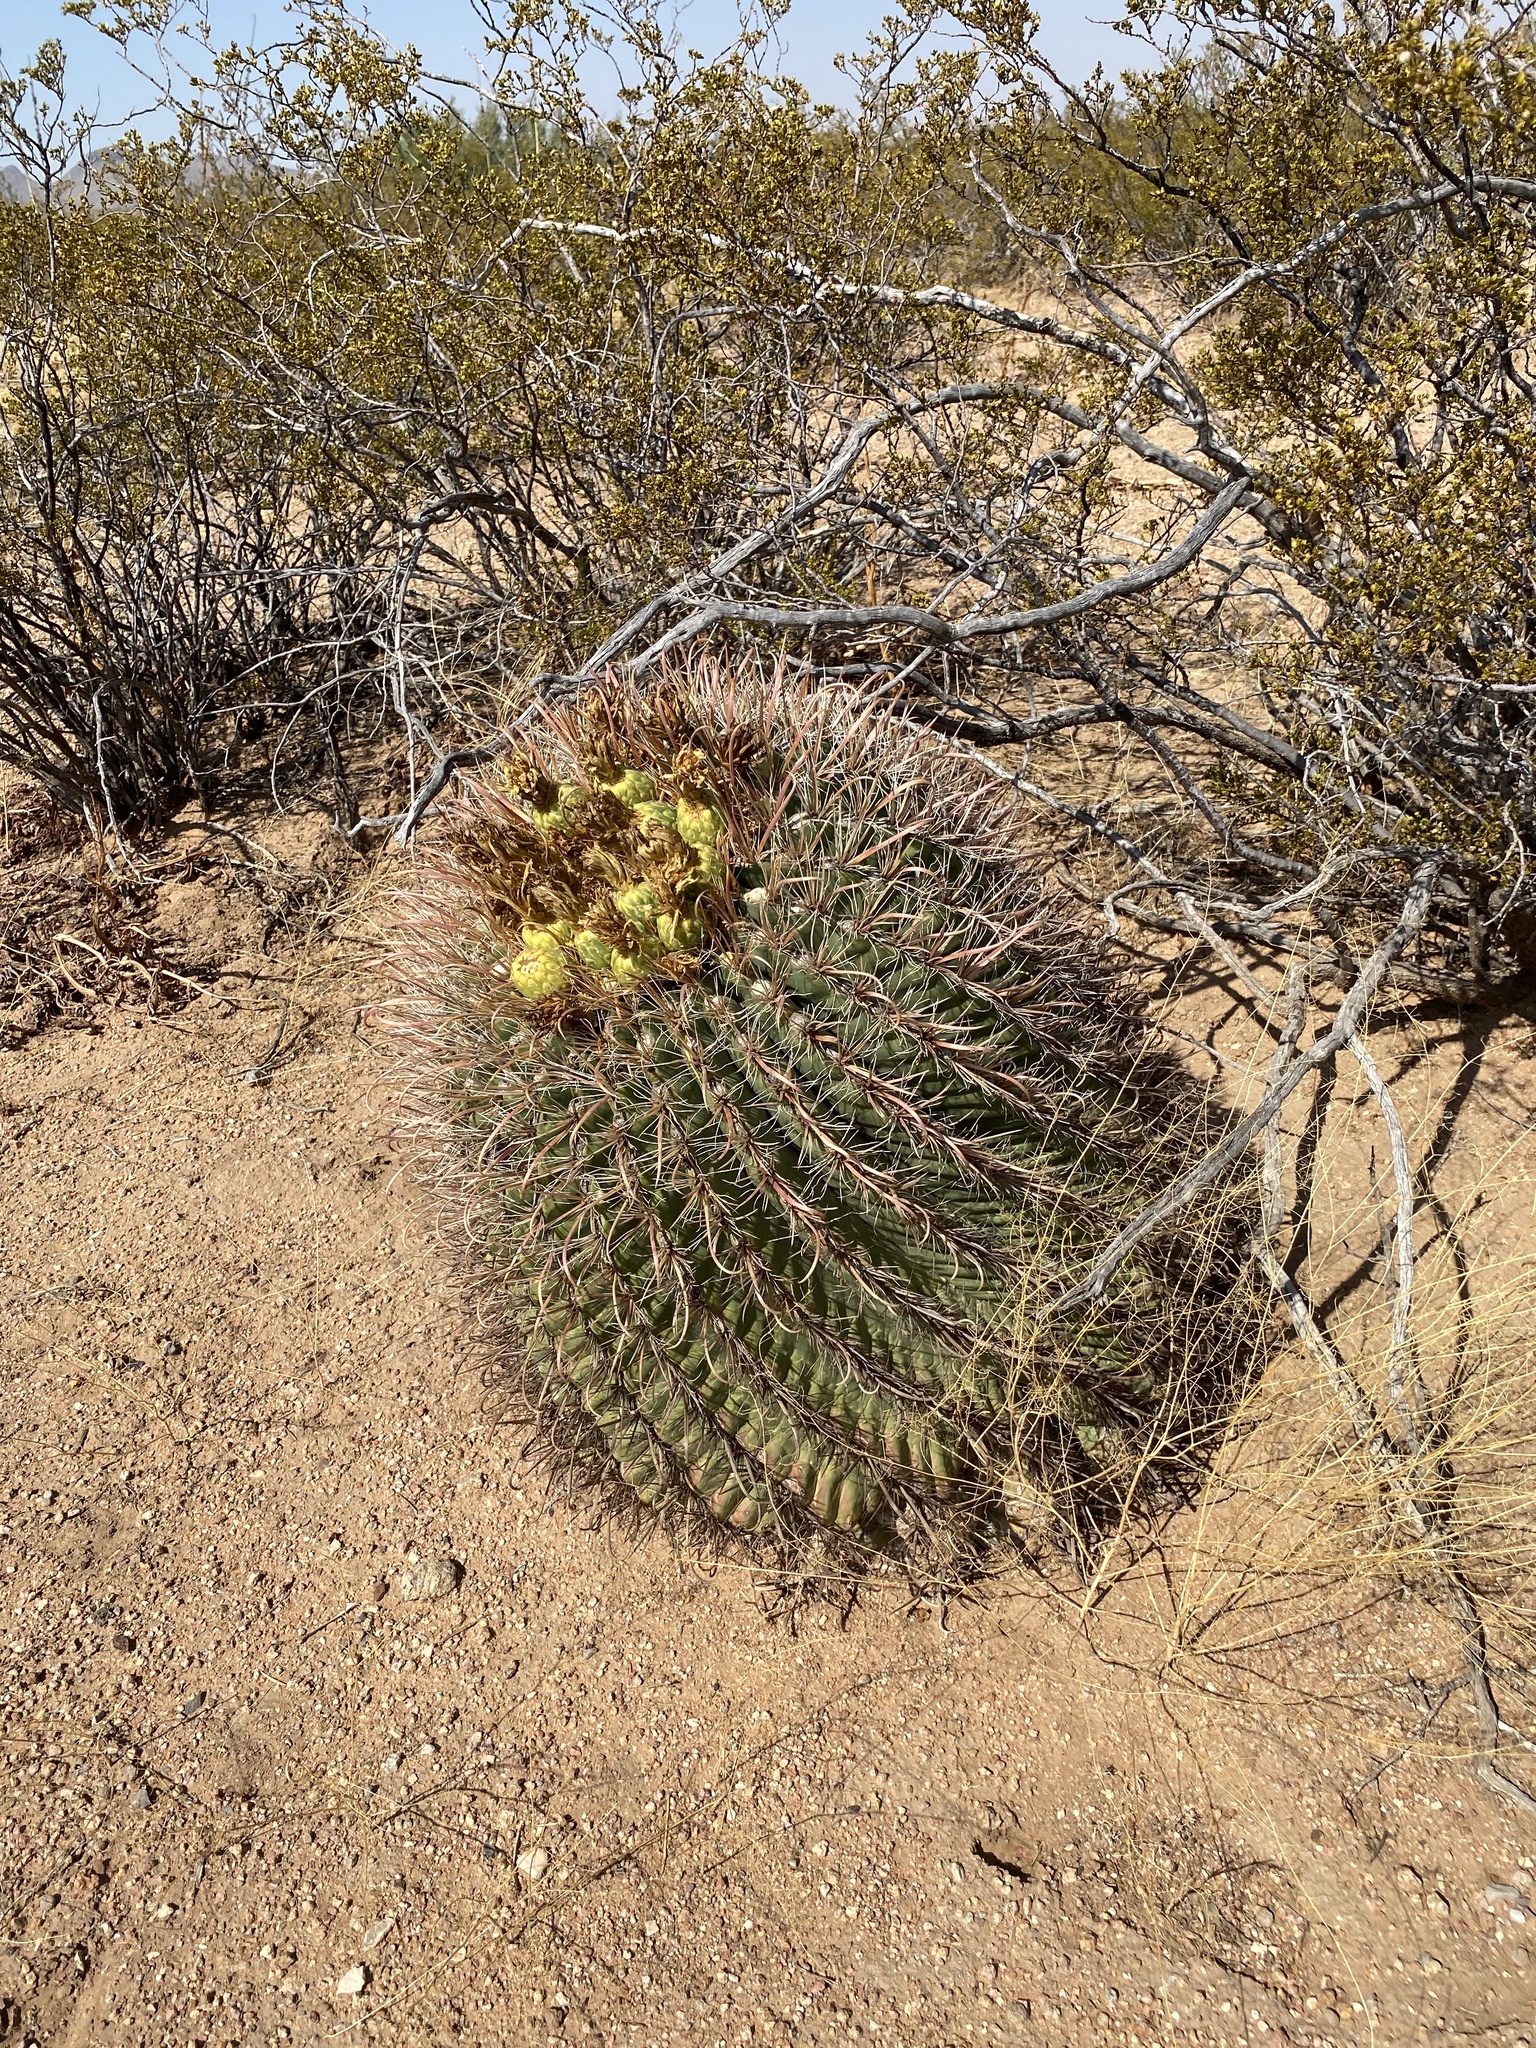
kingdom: Plantae
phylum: Tracheophyta
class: Magnoliopsida
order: Caryophyllales
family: Cactaceae
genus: Ferocactus
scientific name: Ferocactus wislizeni
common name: Candy barrel cactus
